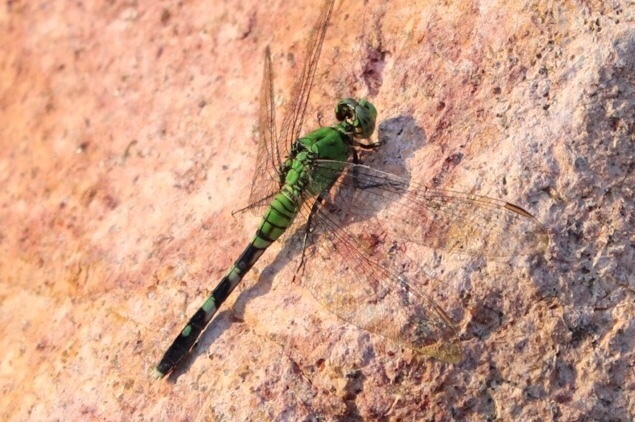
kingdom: Animalia
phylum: Arthropoda
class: Insecta
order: Odonata
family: Libellulidae
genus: Erythemis
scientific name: Erythemis simplicicollis
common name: Eastern pondhawk
